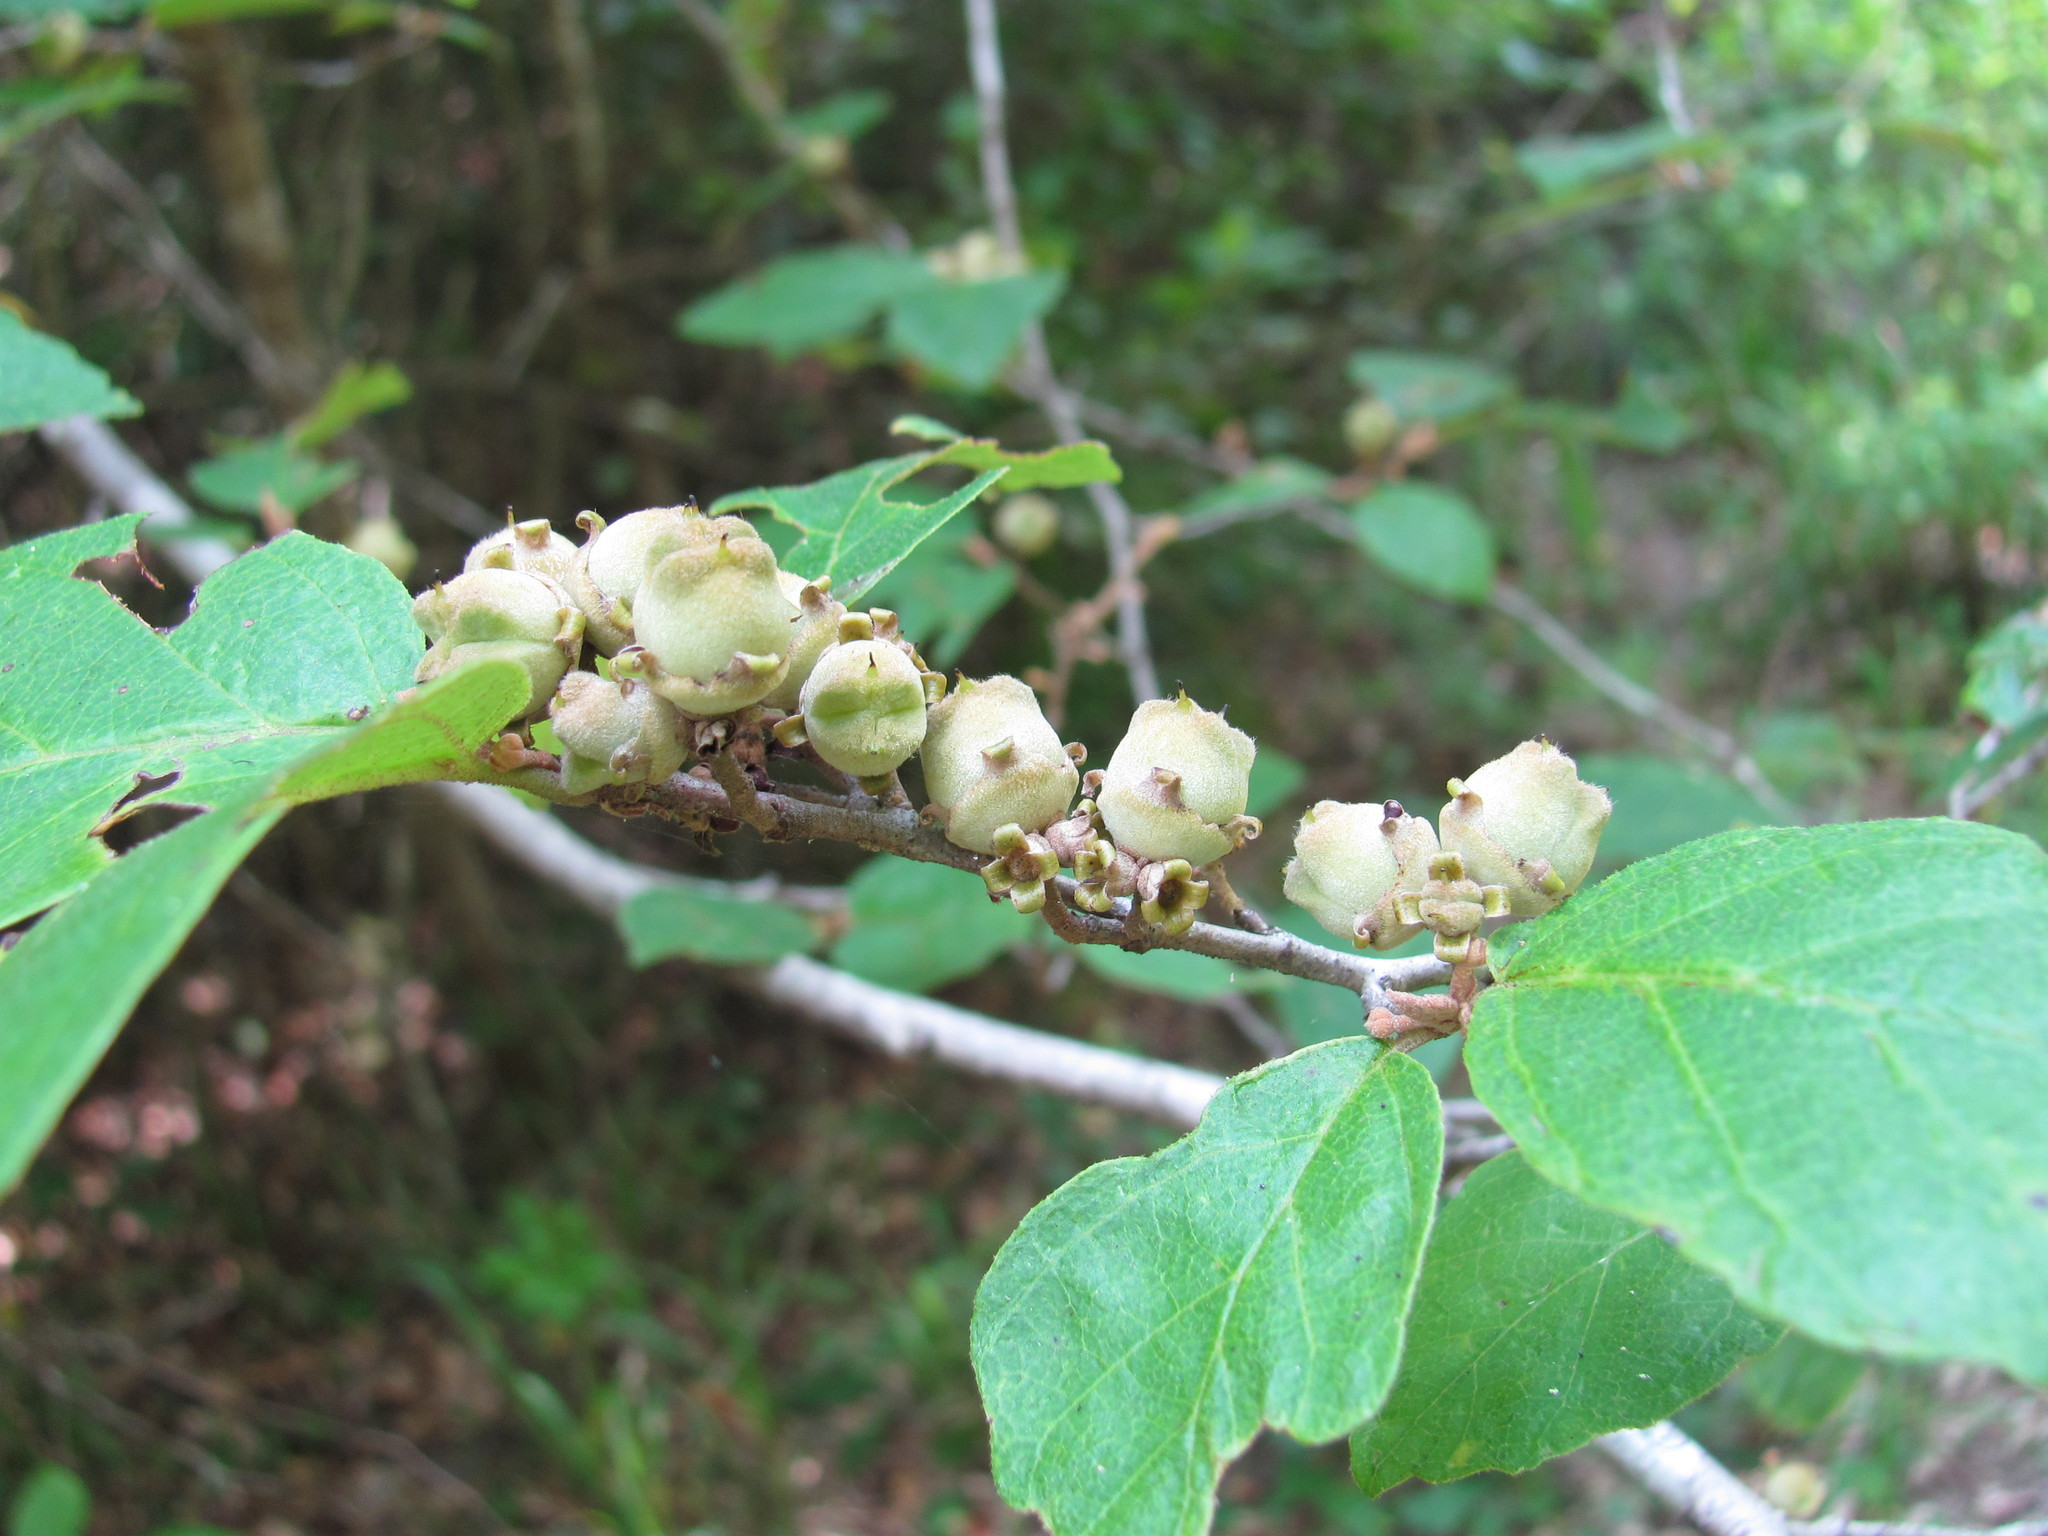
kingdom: Plantae
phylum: Tracheophyta
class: Magnoliopsida
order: Saxifragales
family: Hamamelidaceae
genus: Hamamelis
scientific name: Hamamelis virginiana
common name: Witch-hazel
